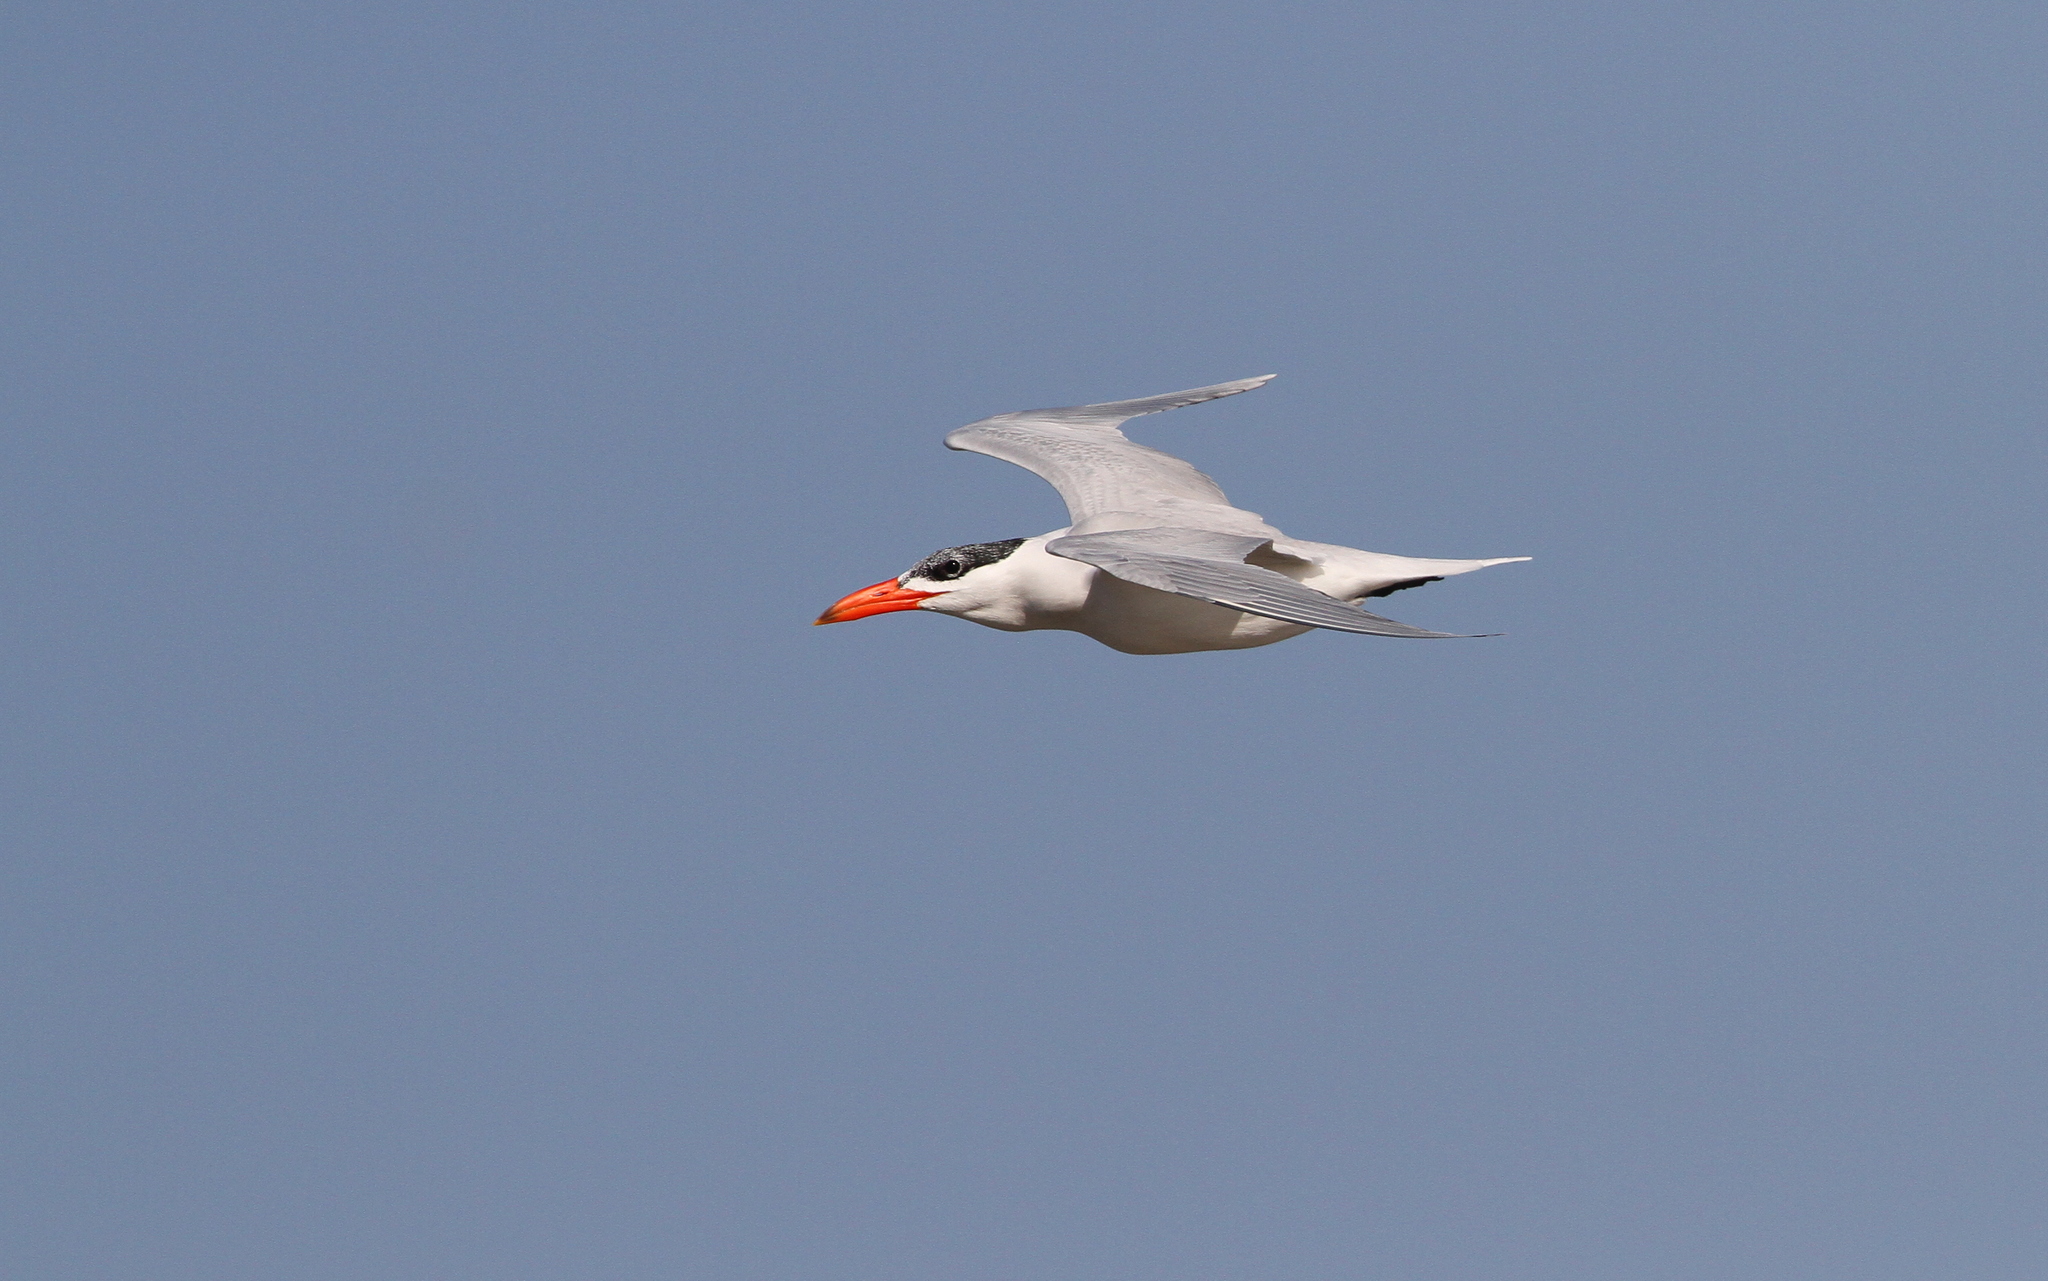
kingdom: Animalia
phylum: Chordata
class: Aves
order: Charadriiformes
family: Laridae
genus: Hydroprogne
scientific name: Hydroprogne caspia
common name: Caspian tern
